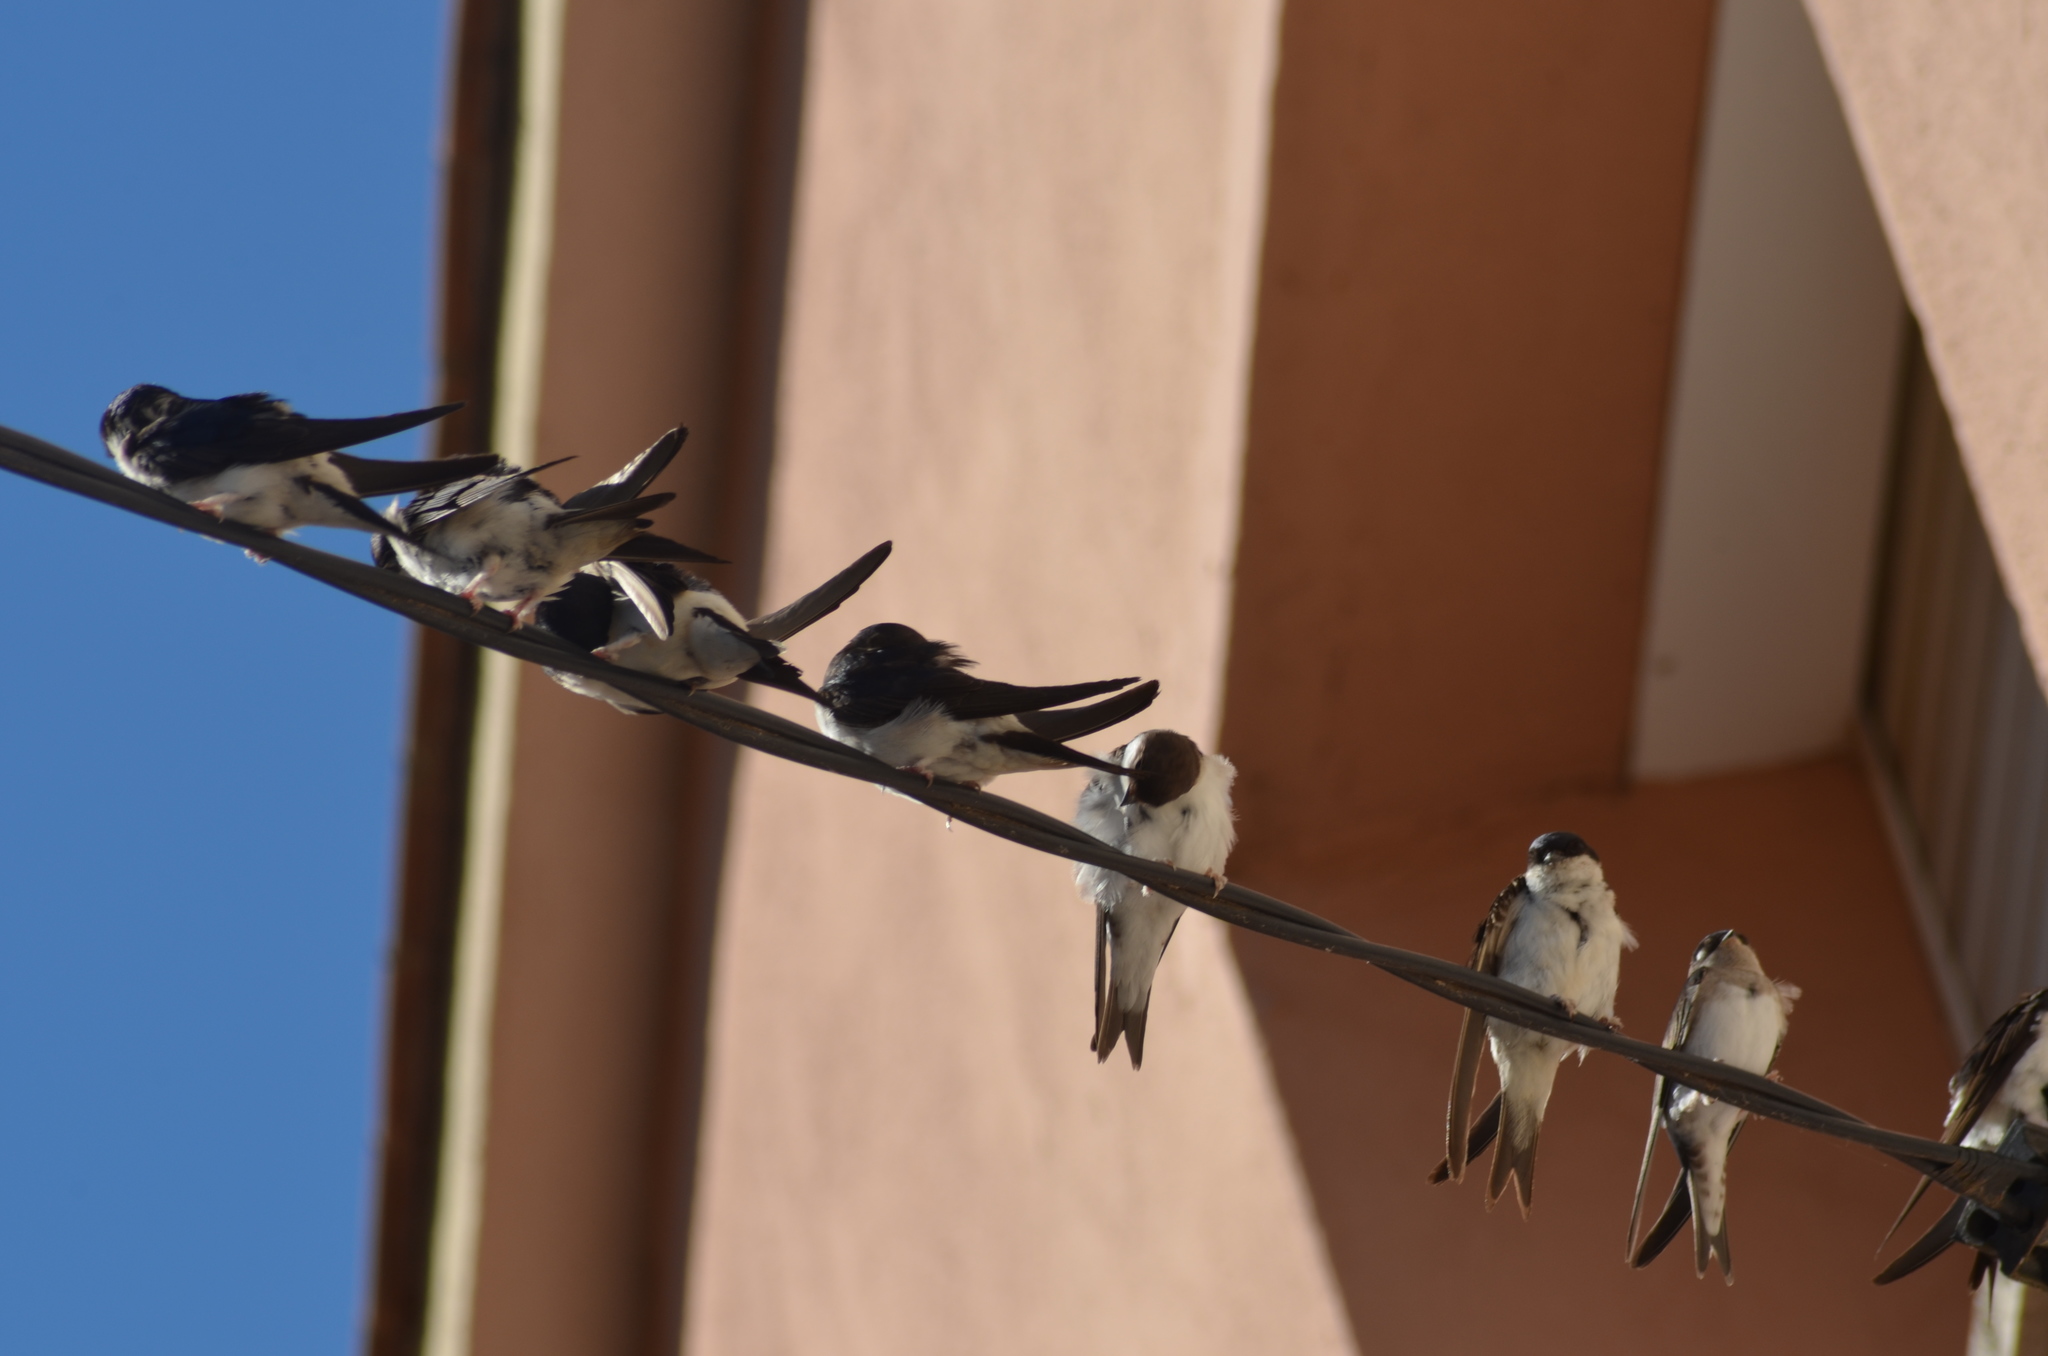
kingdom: Animalia
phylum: Chordata
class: Aves
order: Passeriformes
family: Hirundinidae
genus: Delichon
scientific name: Delichon urbicum
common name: Common house martin
